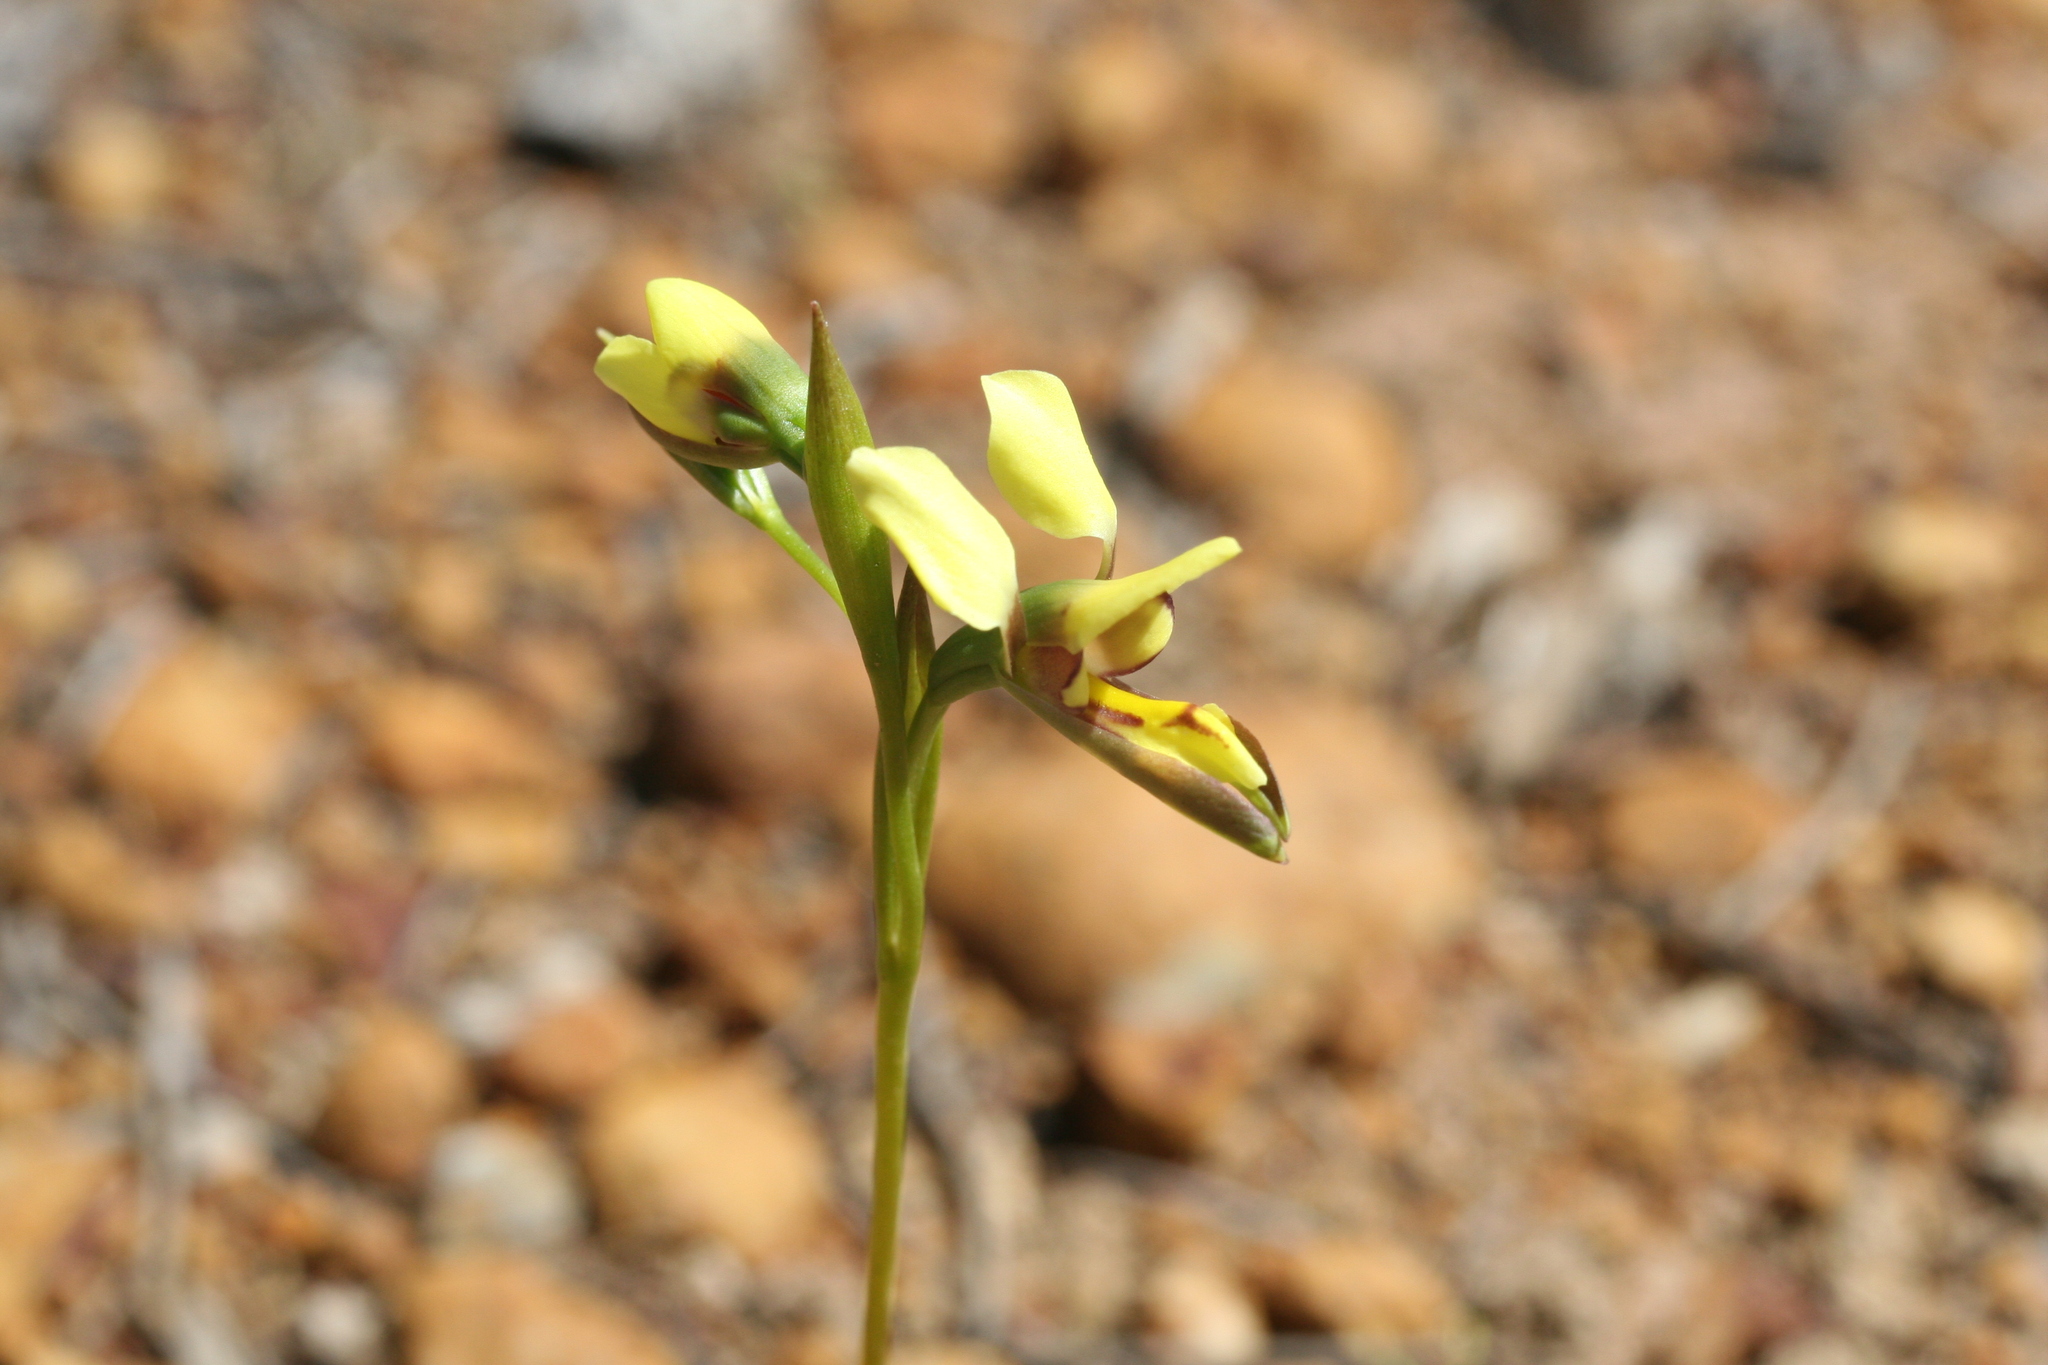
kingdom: Plantae
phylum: Tracheophyta
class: Liliopsida
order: Asparagales
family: Orchidaceae
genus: Diuris
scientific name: Diuris setacea
